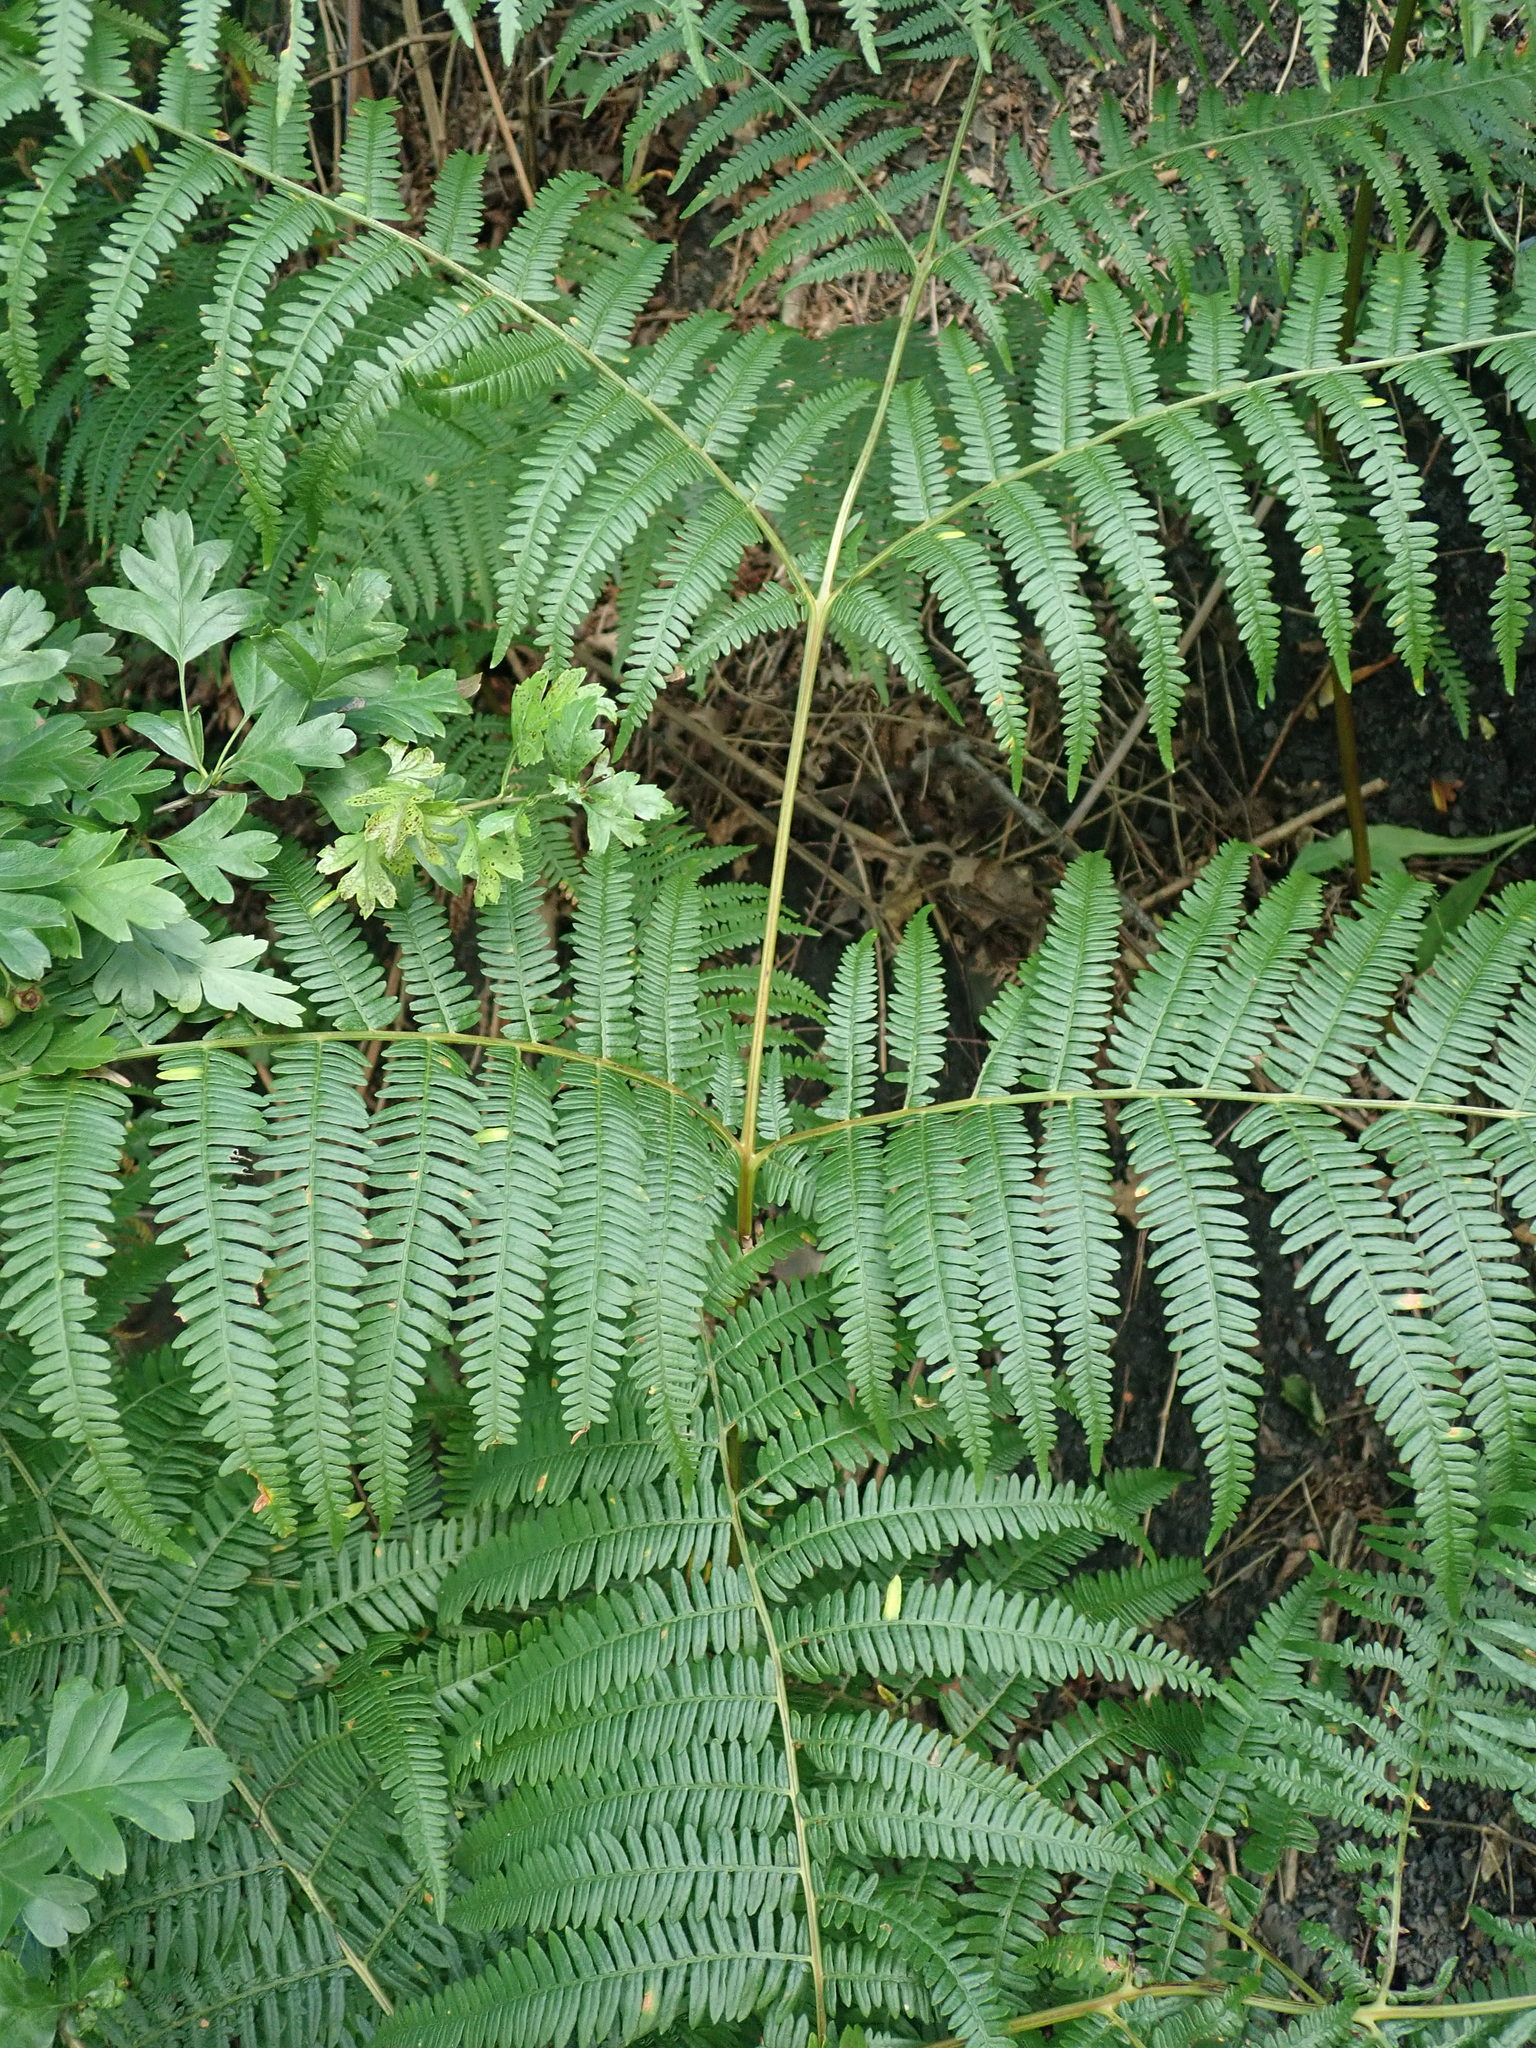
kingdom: Plantae
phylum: Tracheophyta
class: Polypodiopsida
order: Polypodiales
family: Dennstaedtiaceae
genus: Pteridium
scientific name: Pteridium aquilinum
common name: Bracken
